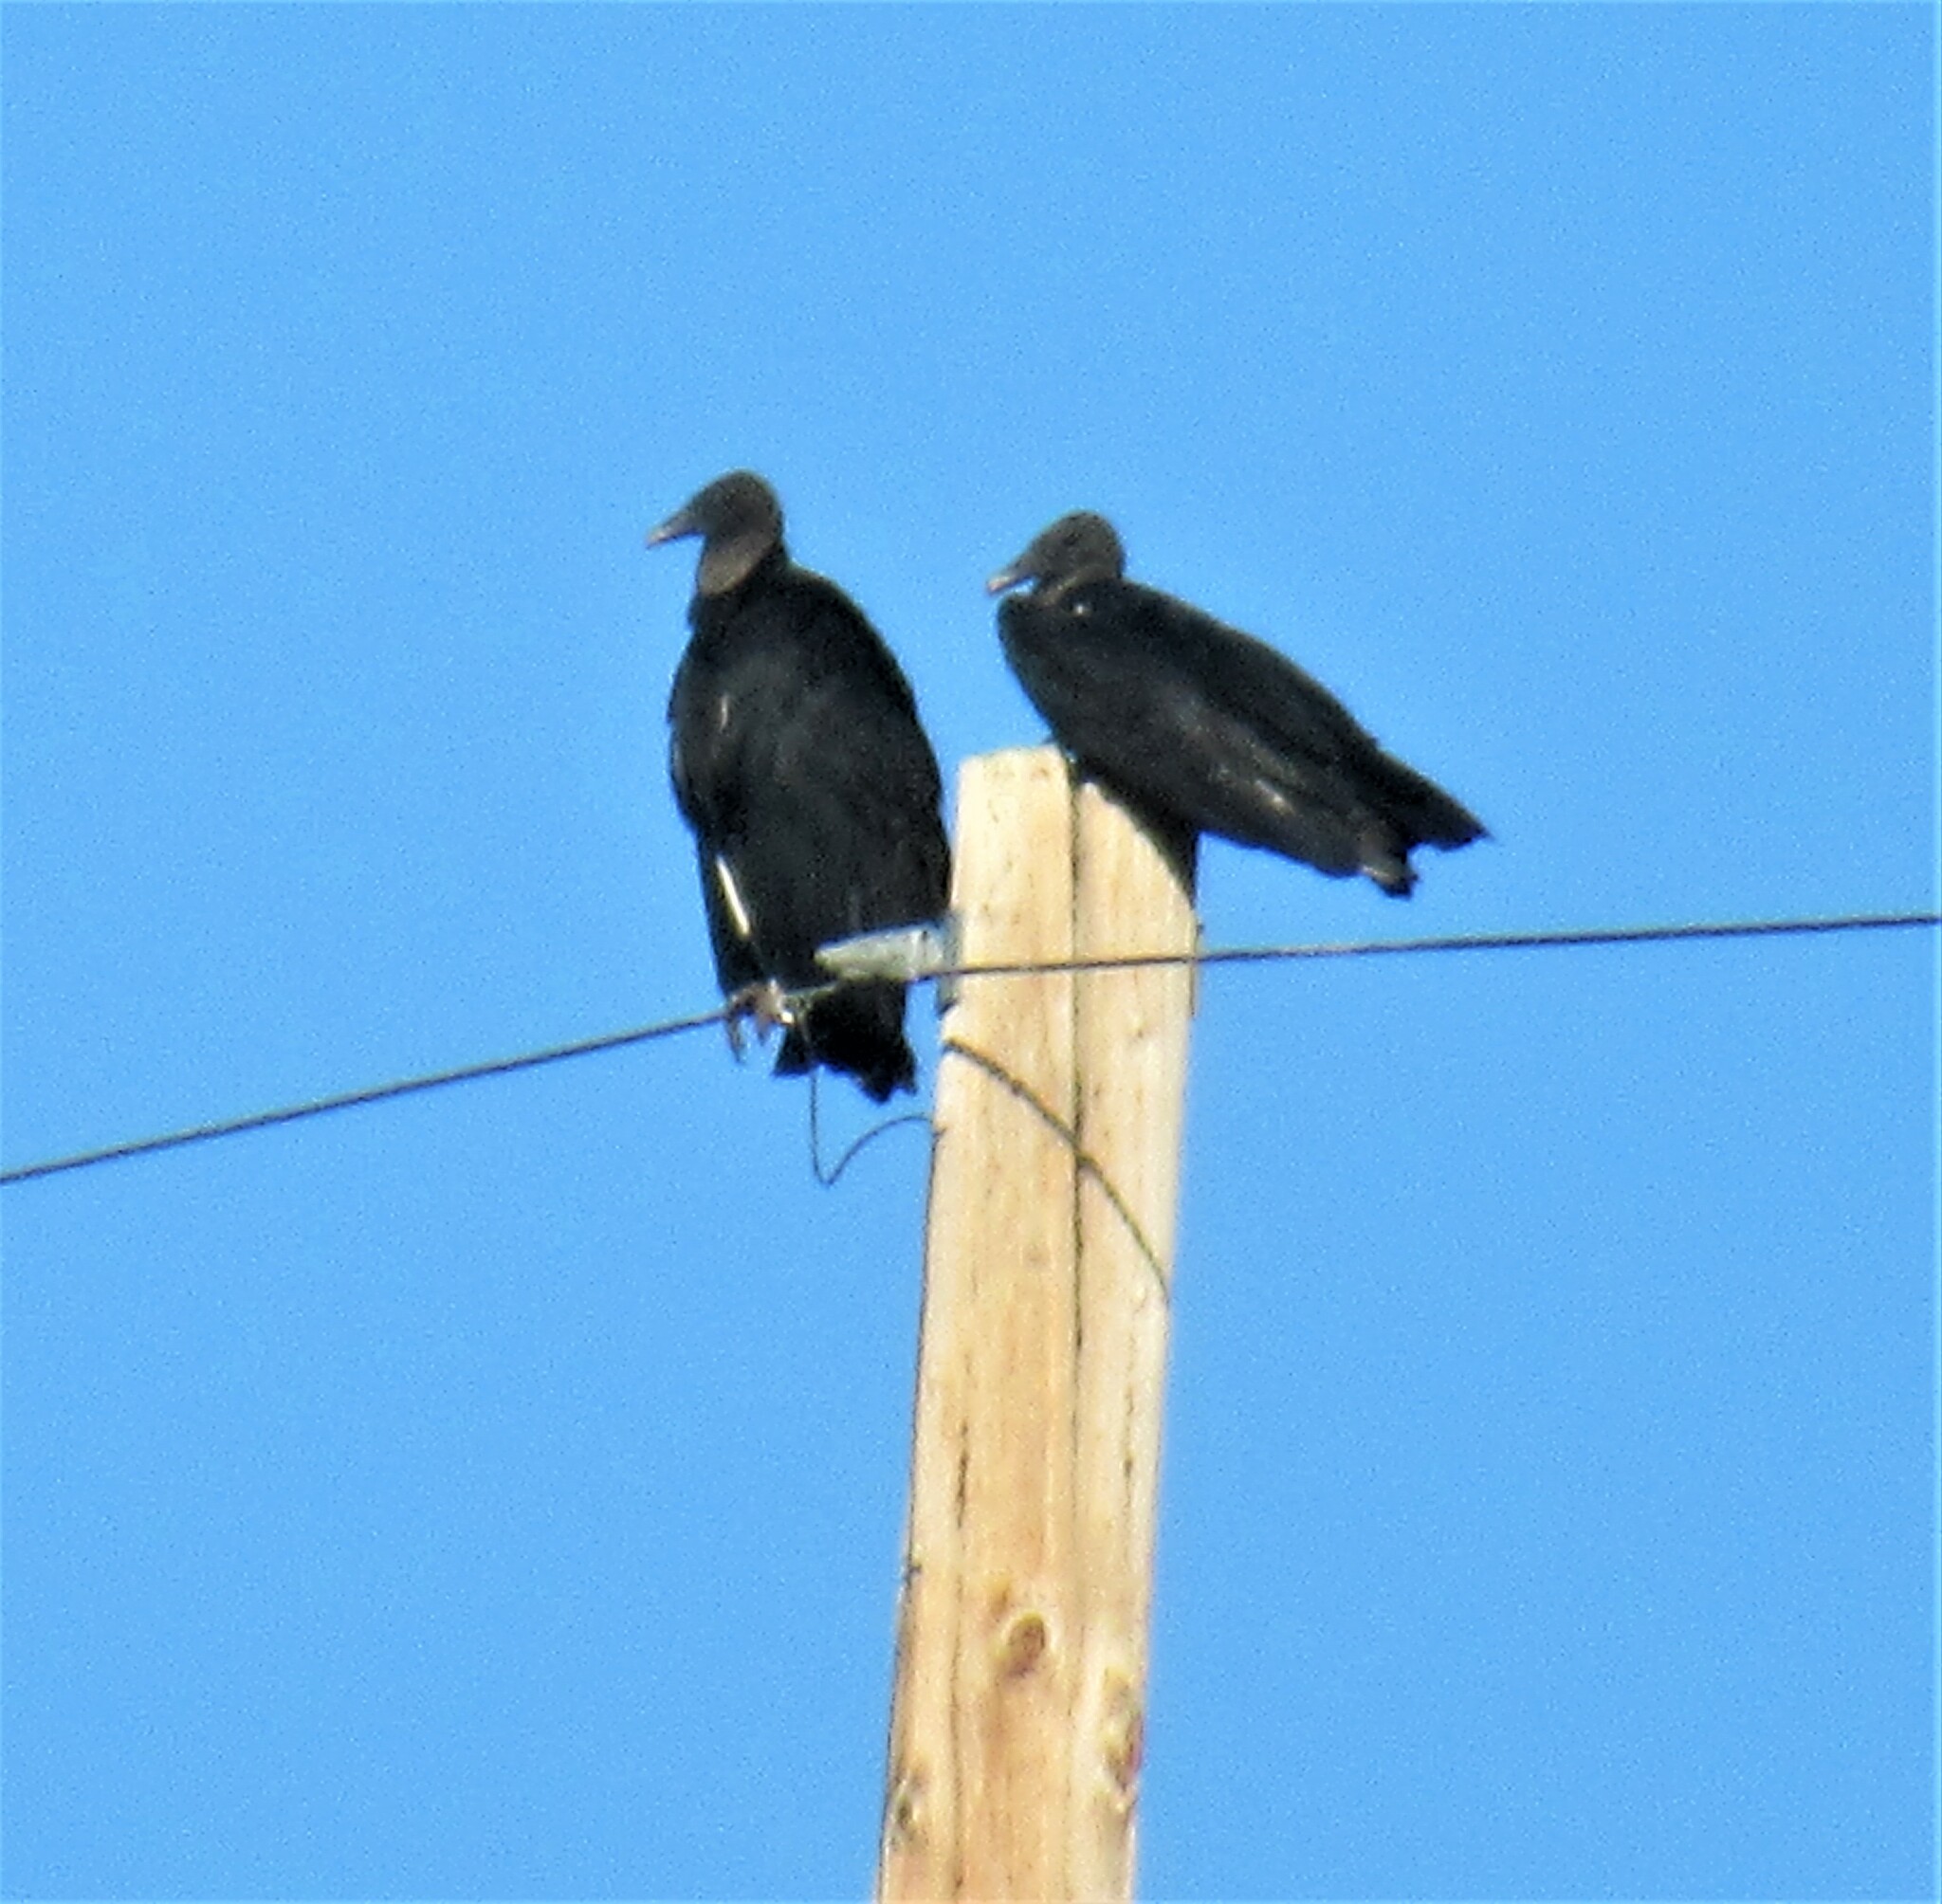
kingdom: Animalia
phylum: Chordata
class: Aves
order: Accipitriformes
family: Cathartidae
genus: Coragyps
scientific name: Coragyps atratus
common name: Black vulture
